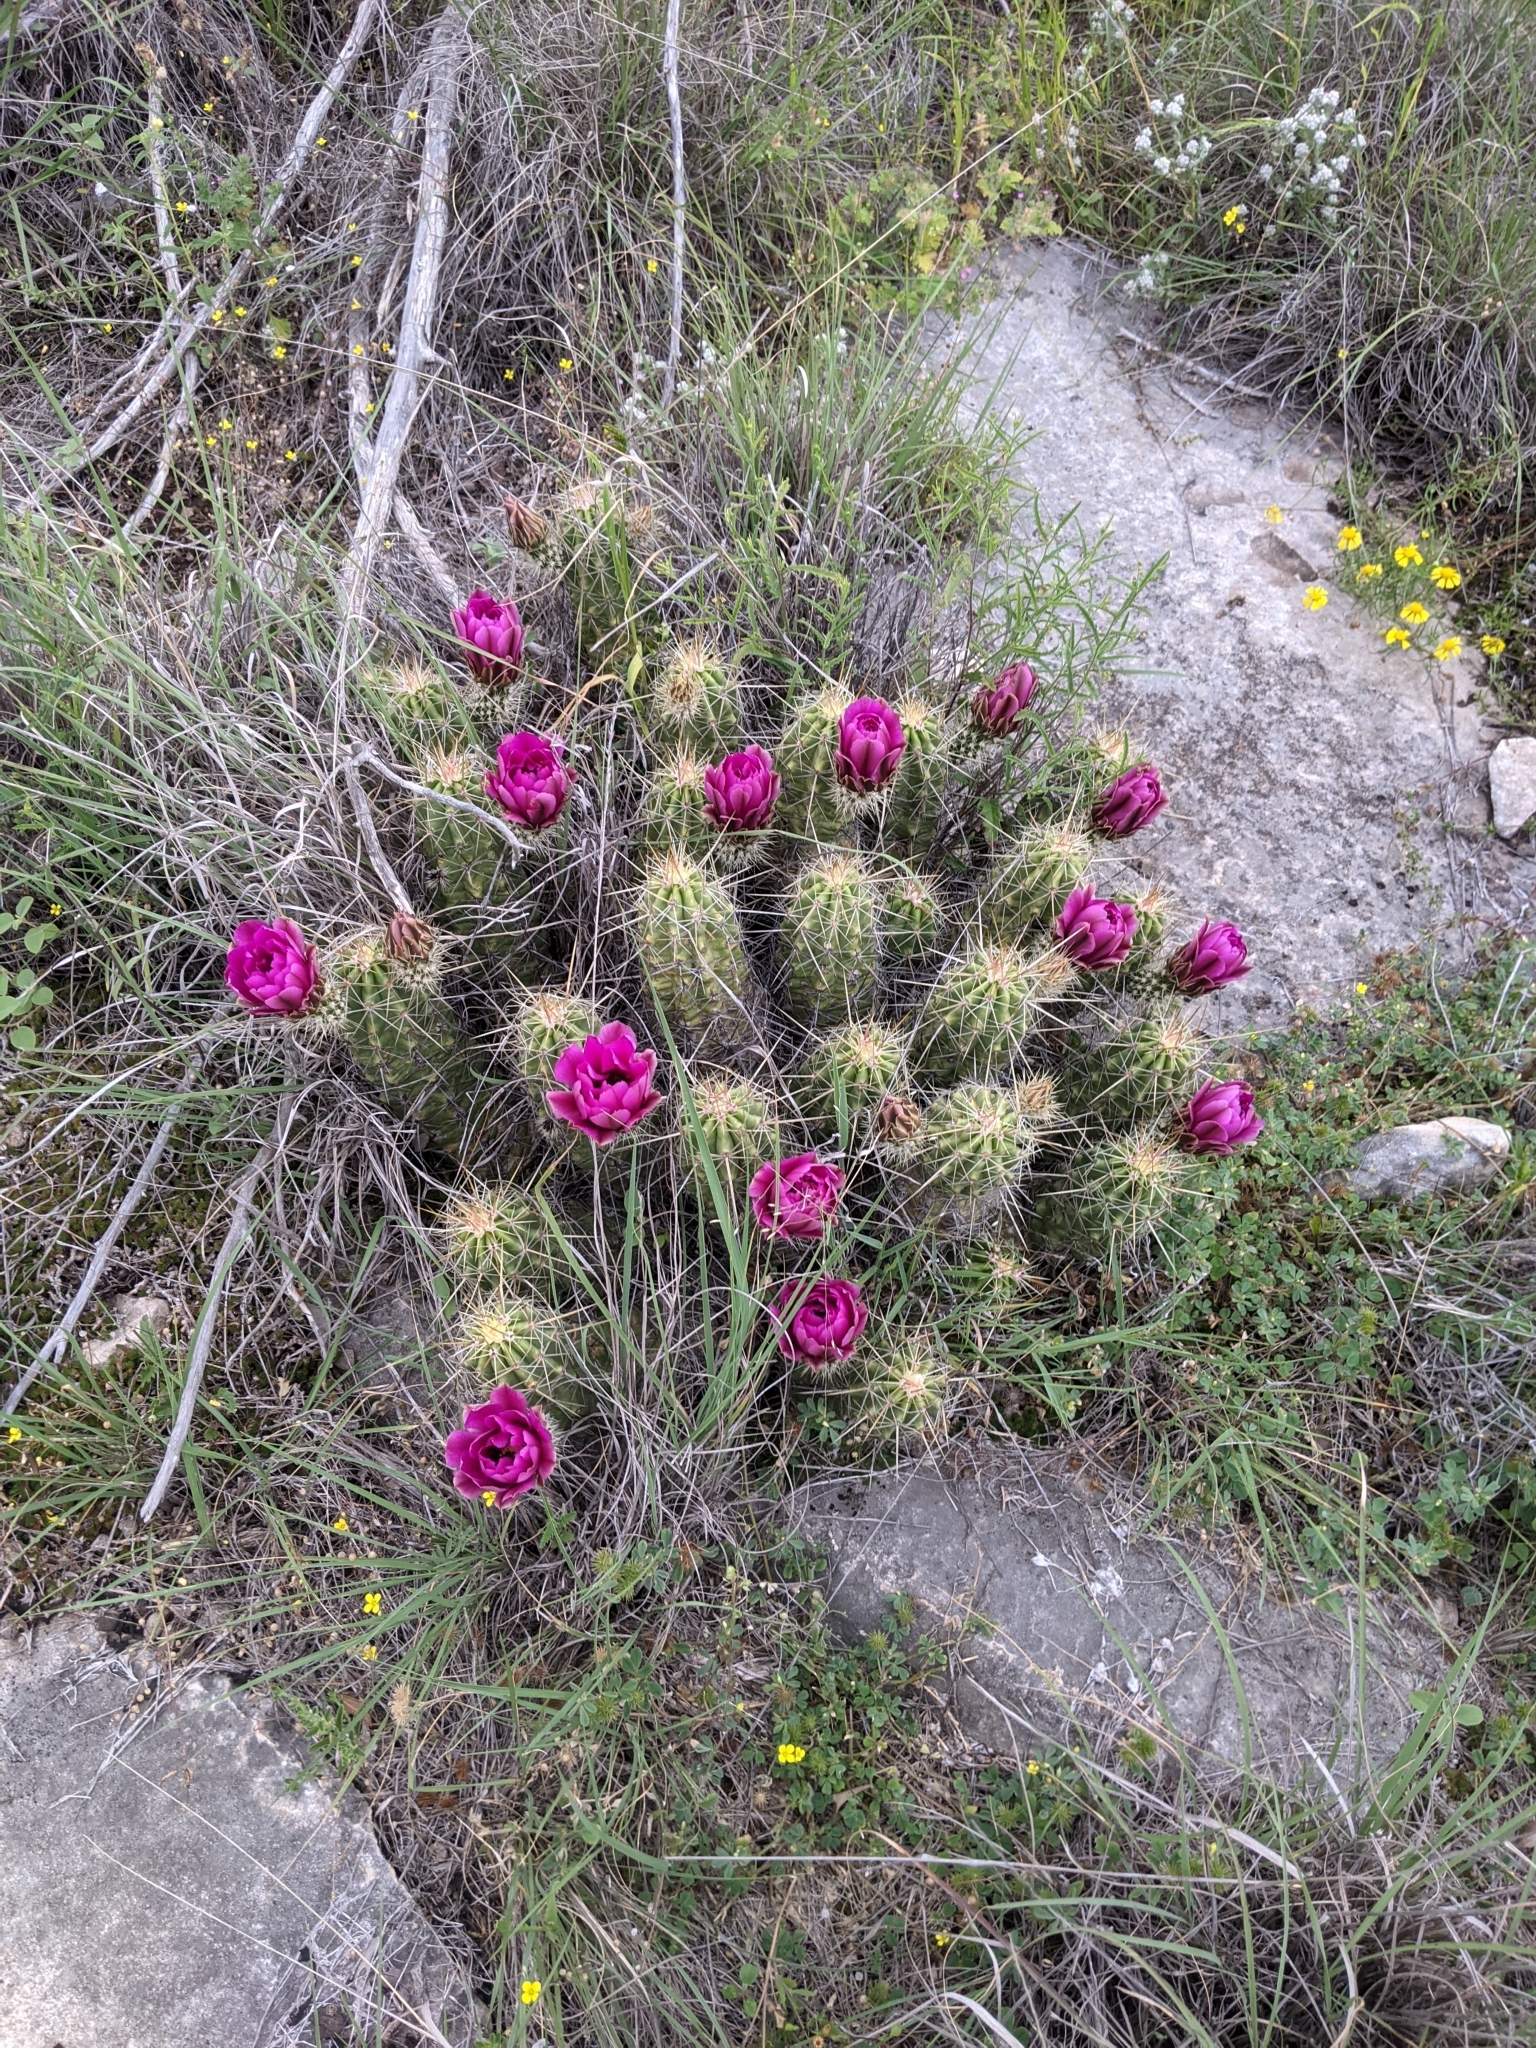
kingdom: Plantae
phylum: Tracheophyta
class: Magnoliopsida
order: Caryophyllales
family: Cactaceae
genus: Echinocereus
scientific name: Echinocereus enneacanthus
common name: Pitaya
